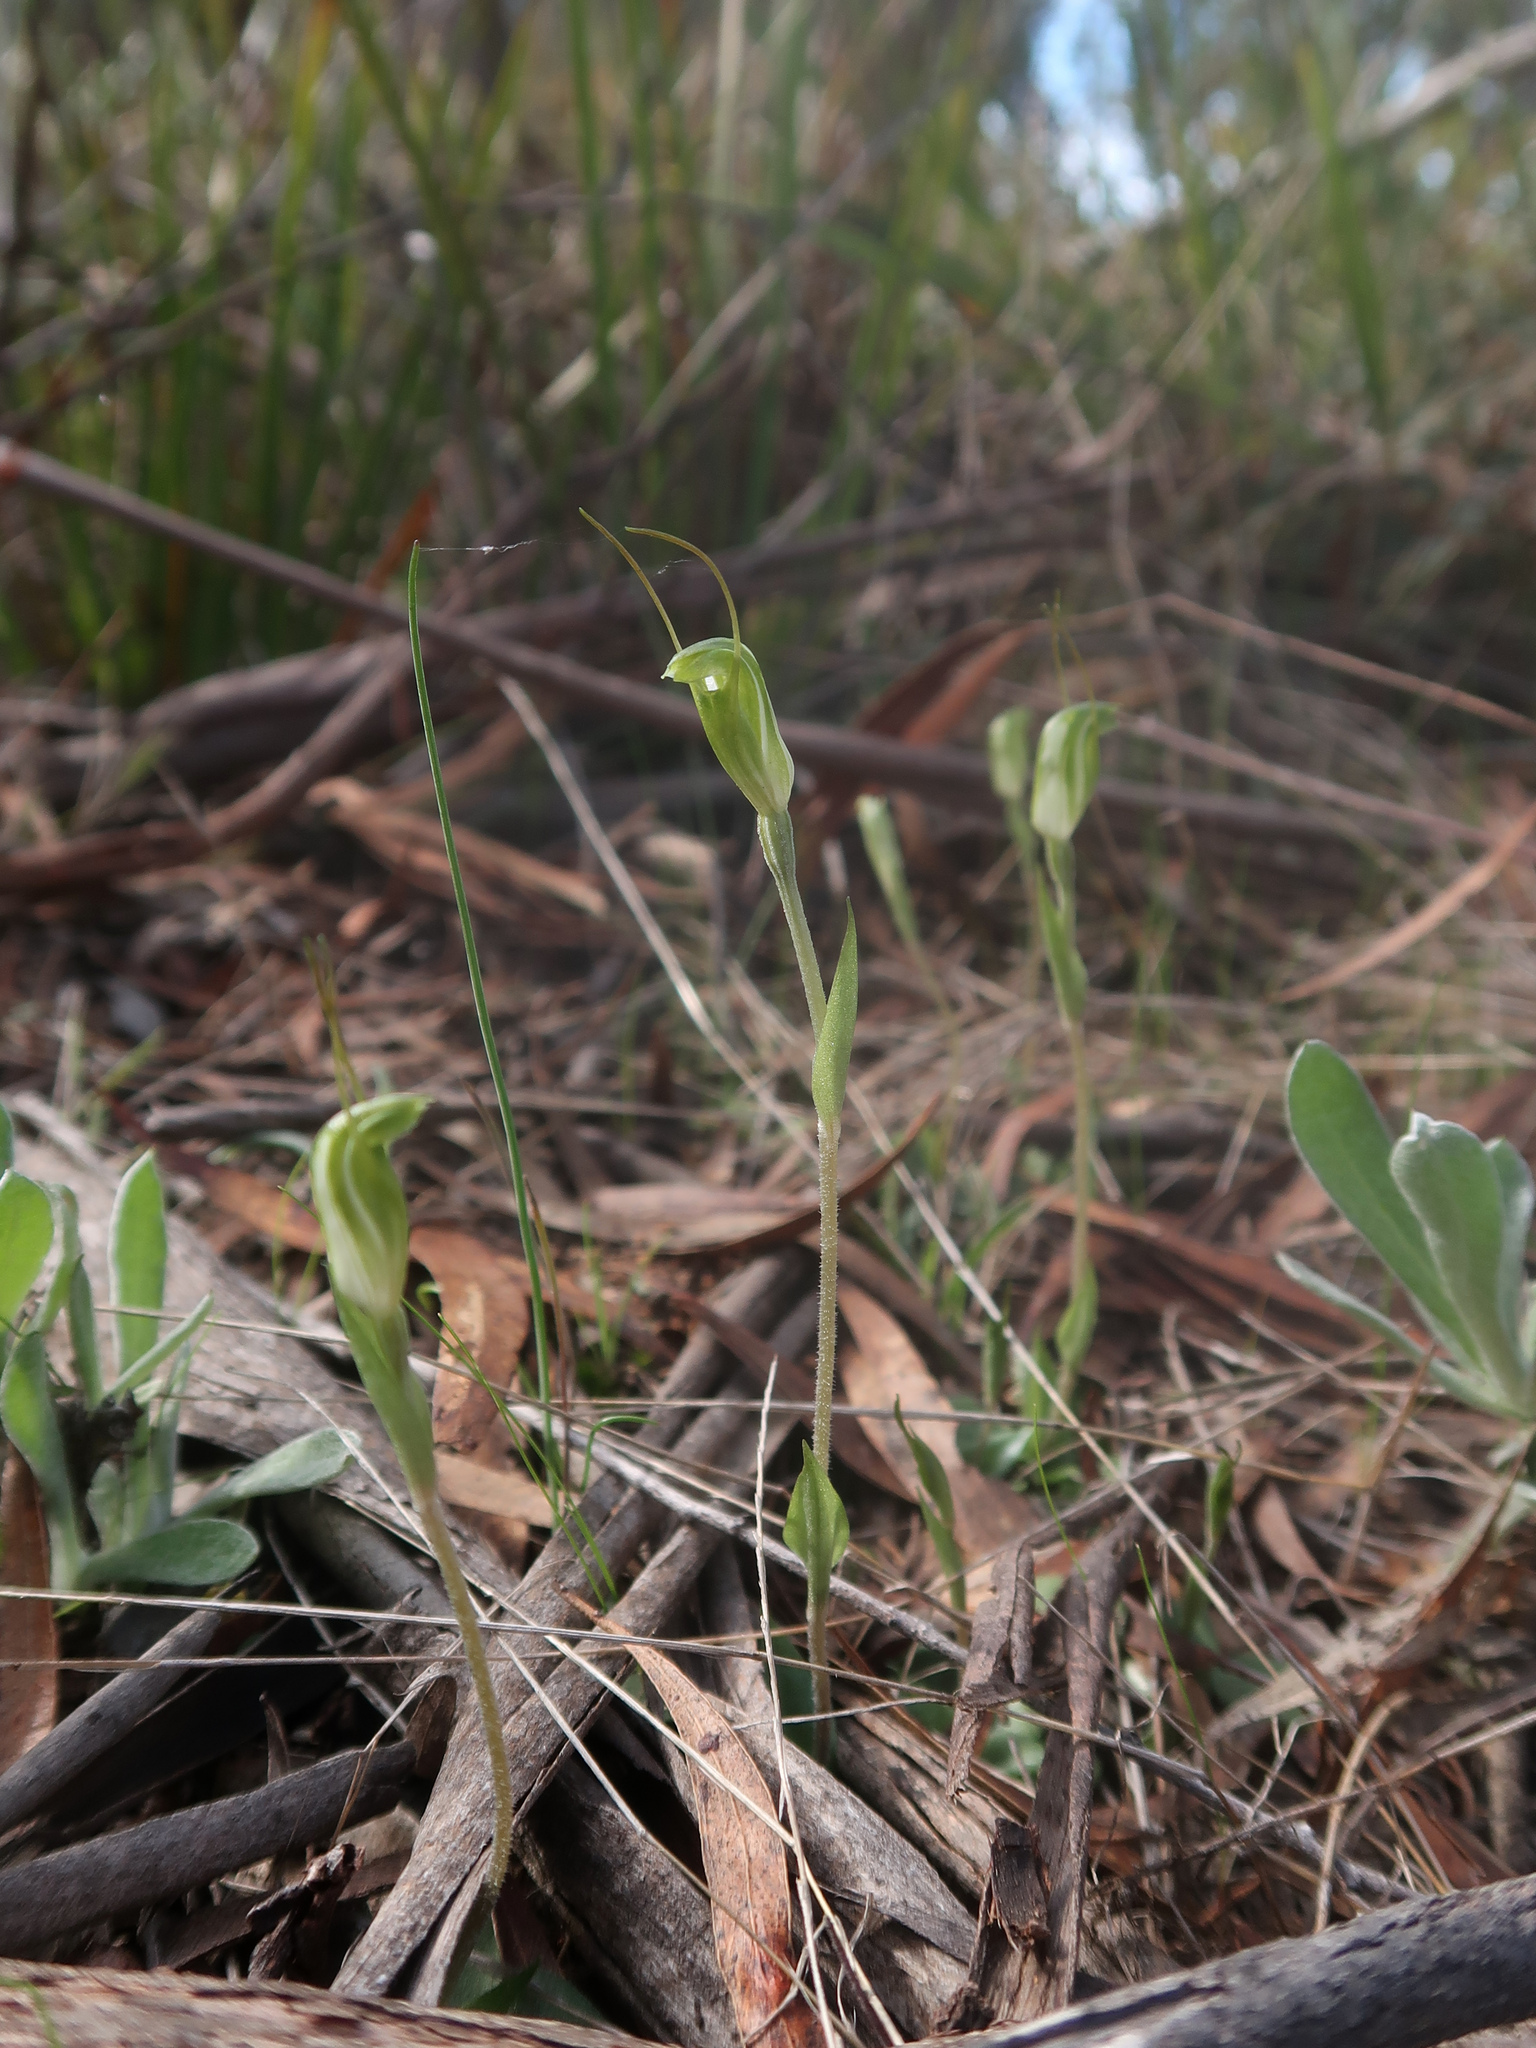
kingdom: Plantae
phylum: Tracheophyta
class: Liliopsida
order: Asparagales
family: Orchidaceae
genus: Pterostylis
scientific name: Pterostylis nana
